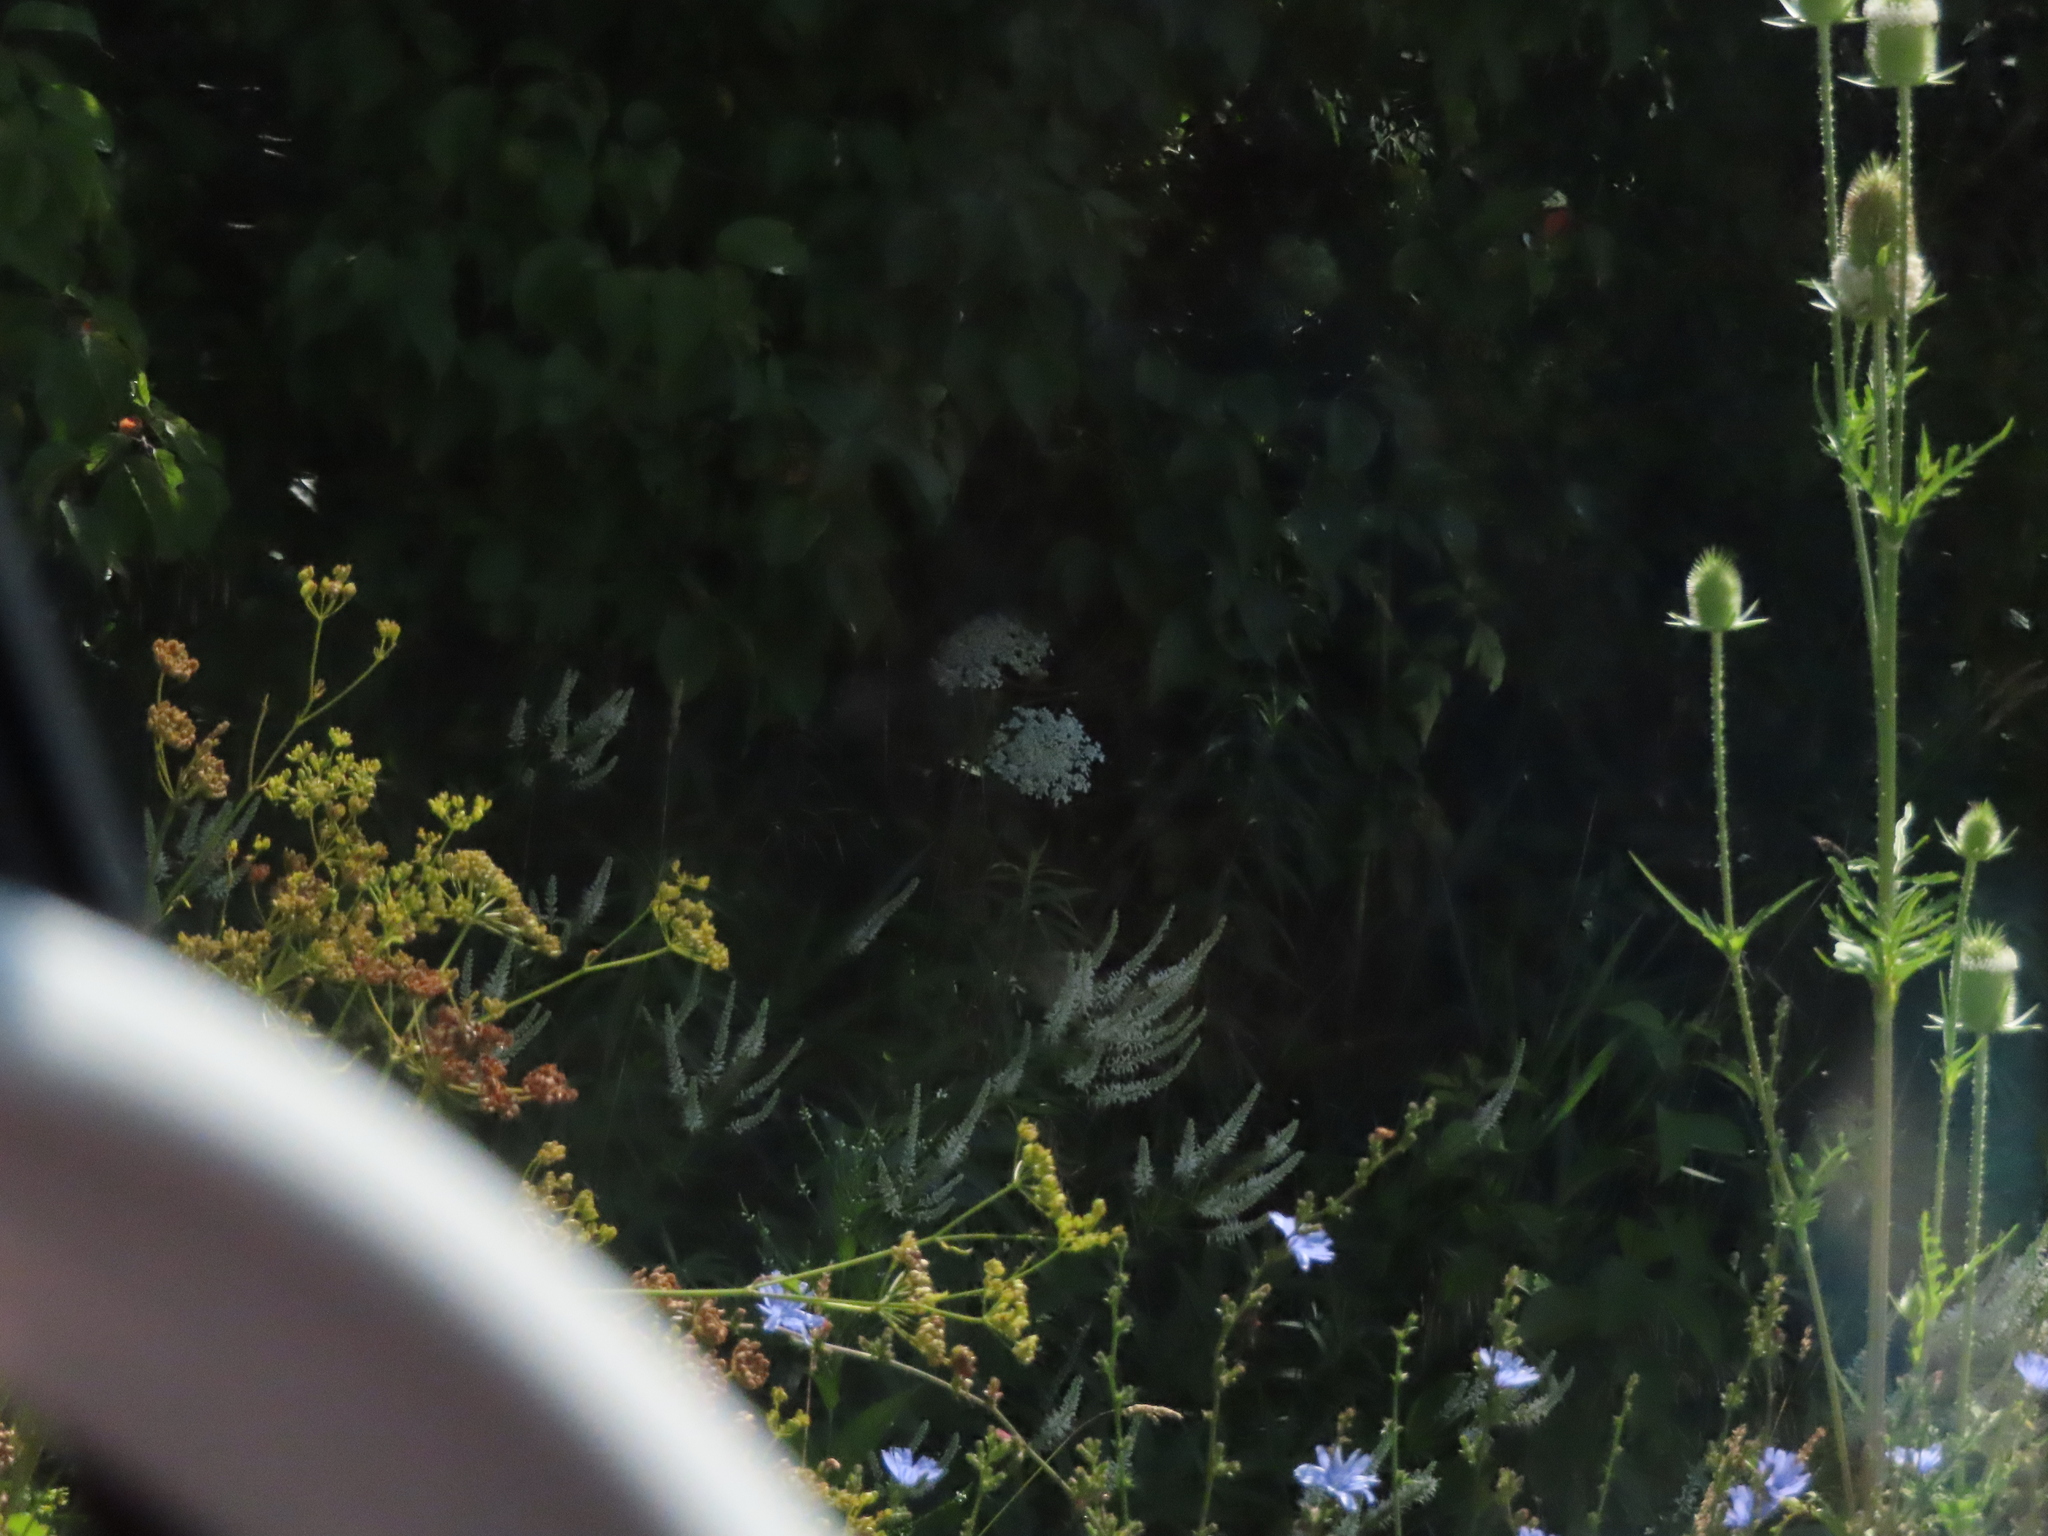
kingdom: Plantae
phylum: Tracheophyta
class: Magnoliopsida
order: Lamiales
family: Plantaginaceae
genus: Veronicastrum
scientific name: Veronicastrum virginicum
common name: Blackroot
